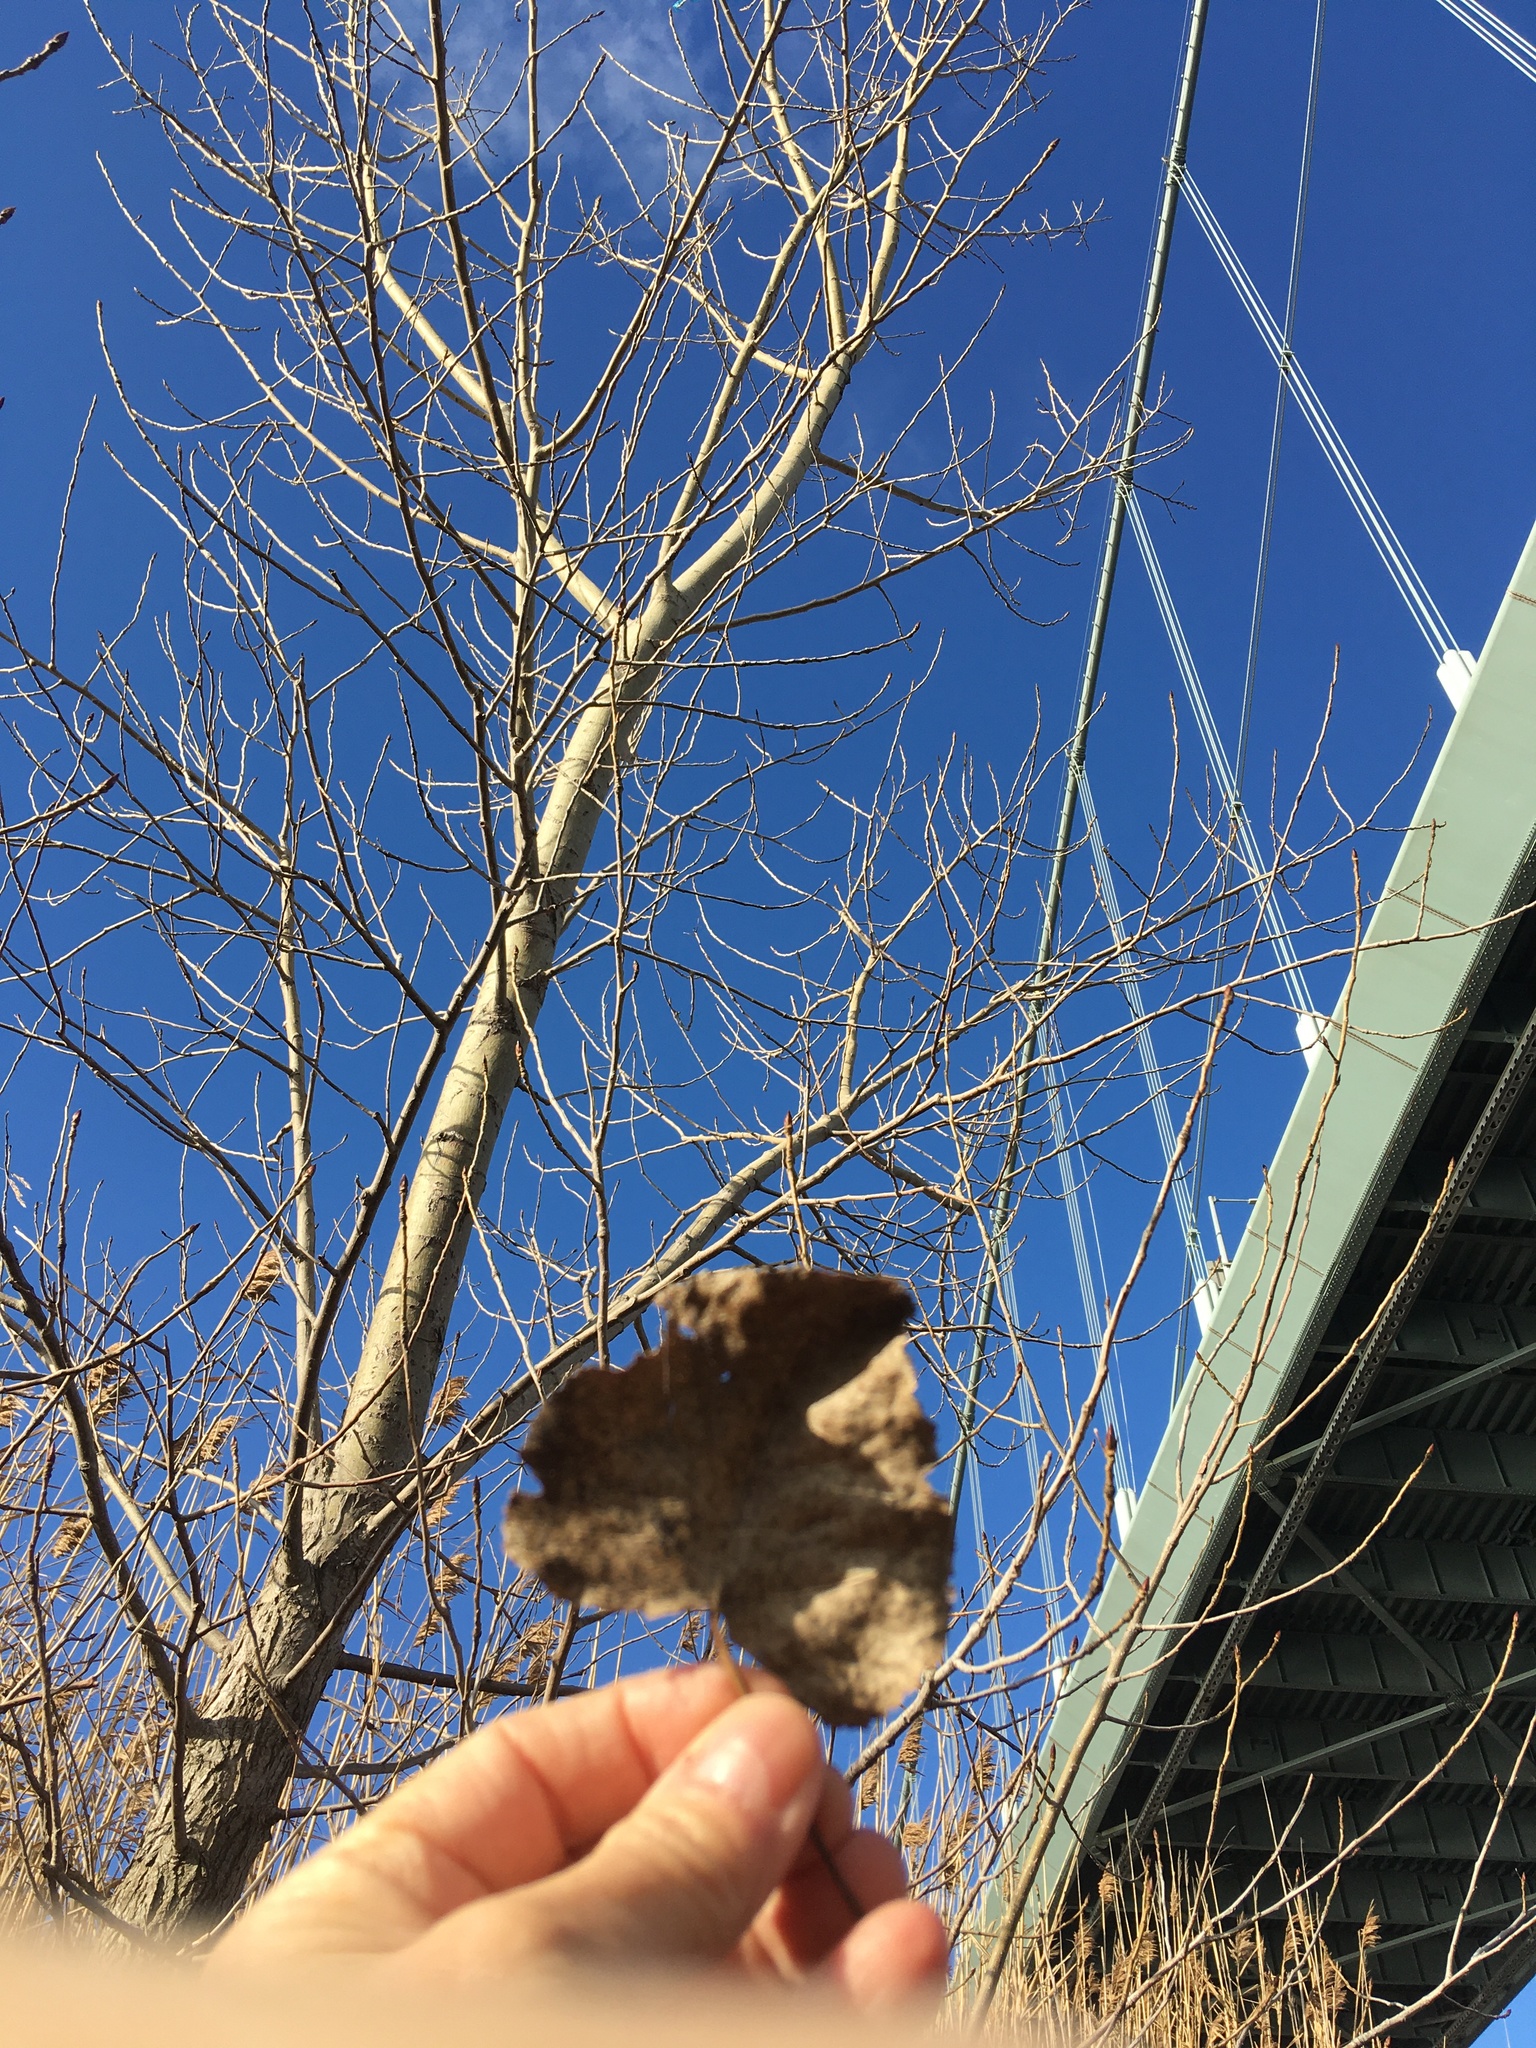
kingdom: Plantae
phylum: Tracheophyta
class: Magnoliopsida
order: Malpighiales
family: Salicaceae
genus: Populus
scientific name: Populus deltoides
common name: Eastern cottonwood
